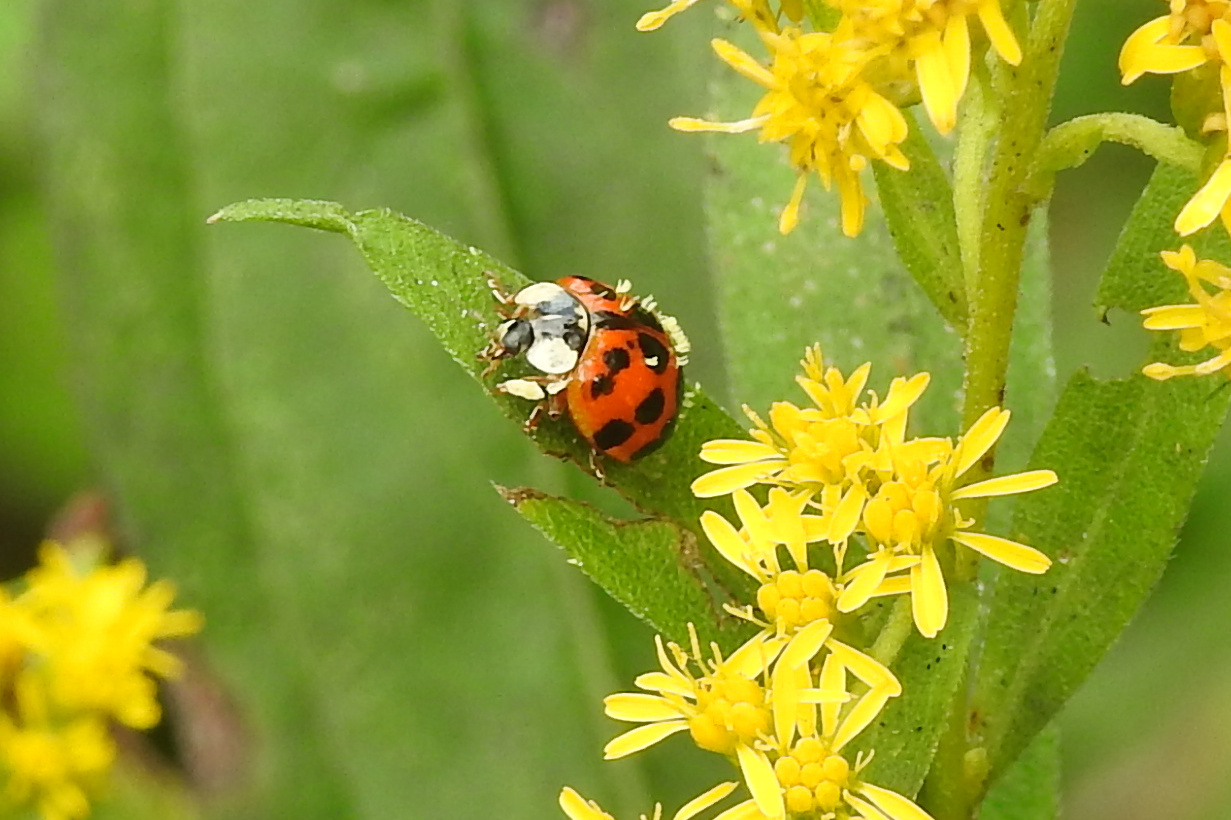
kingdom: Animalia
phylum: Arthropoda
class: Insecta
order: Coleoptera
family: Coccinellidae
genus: Harmonia
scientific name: Harmonia axyridis
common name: Harlequin ladybird
